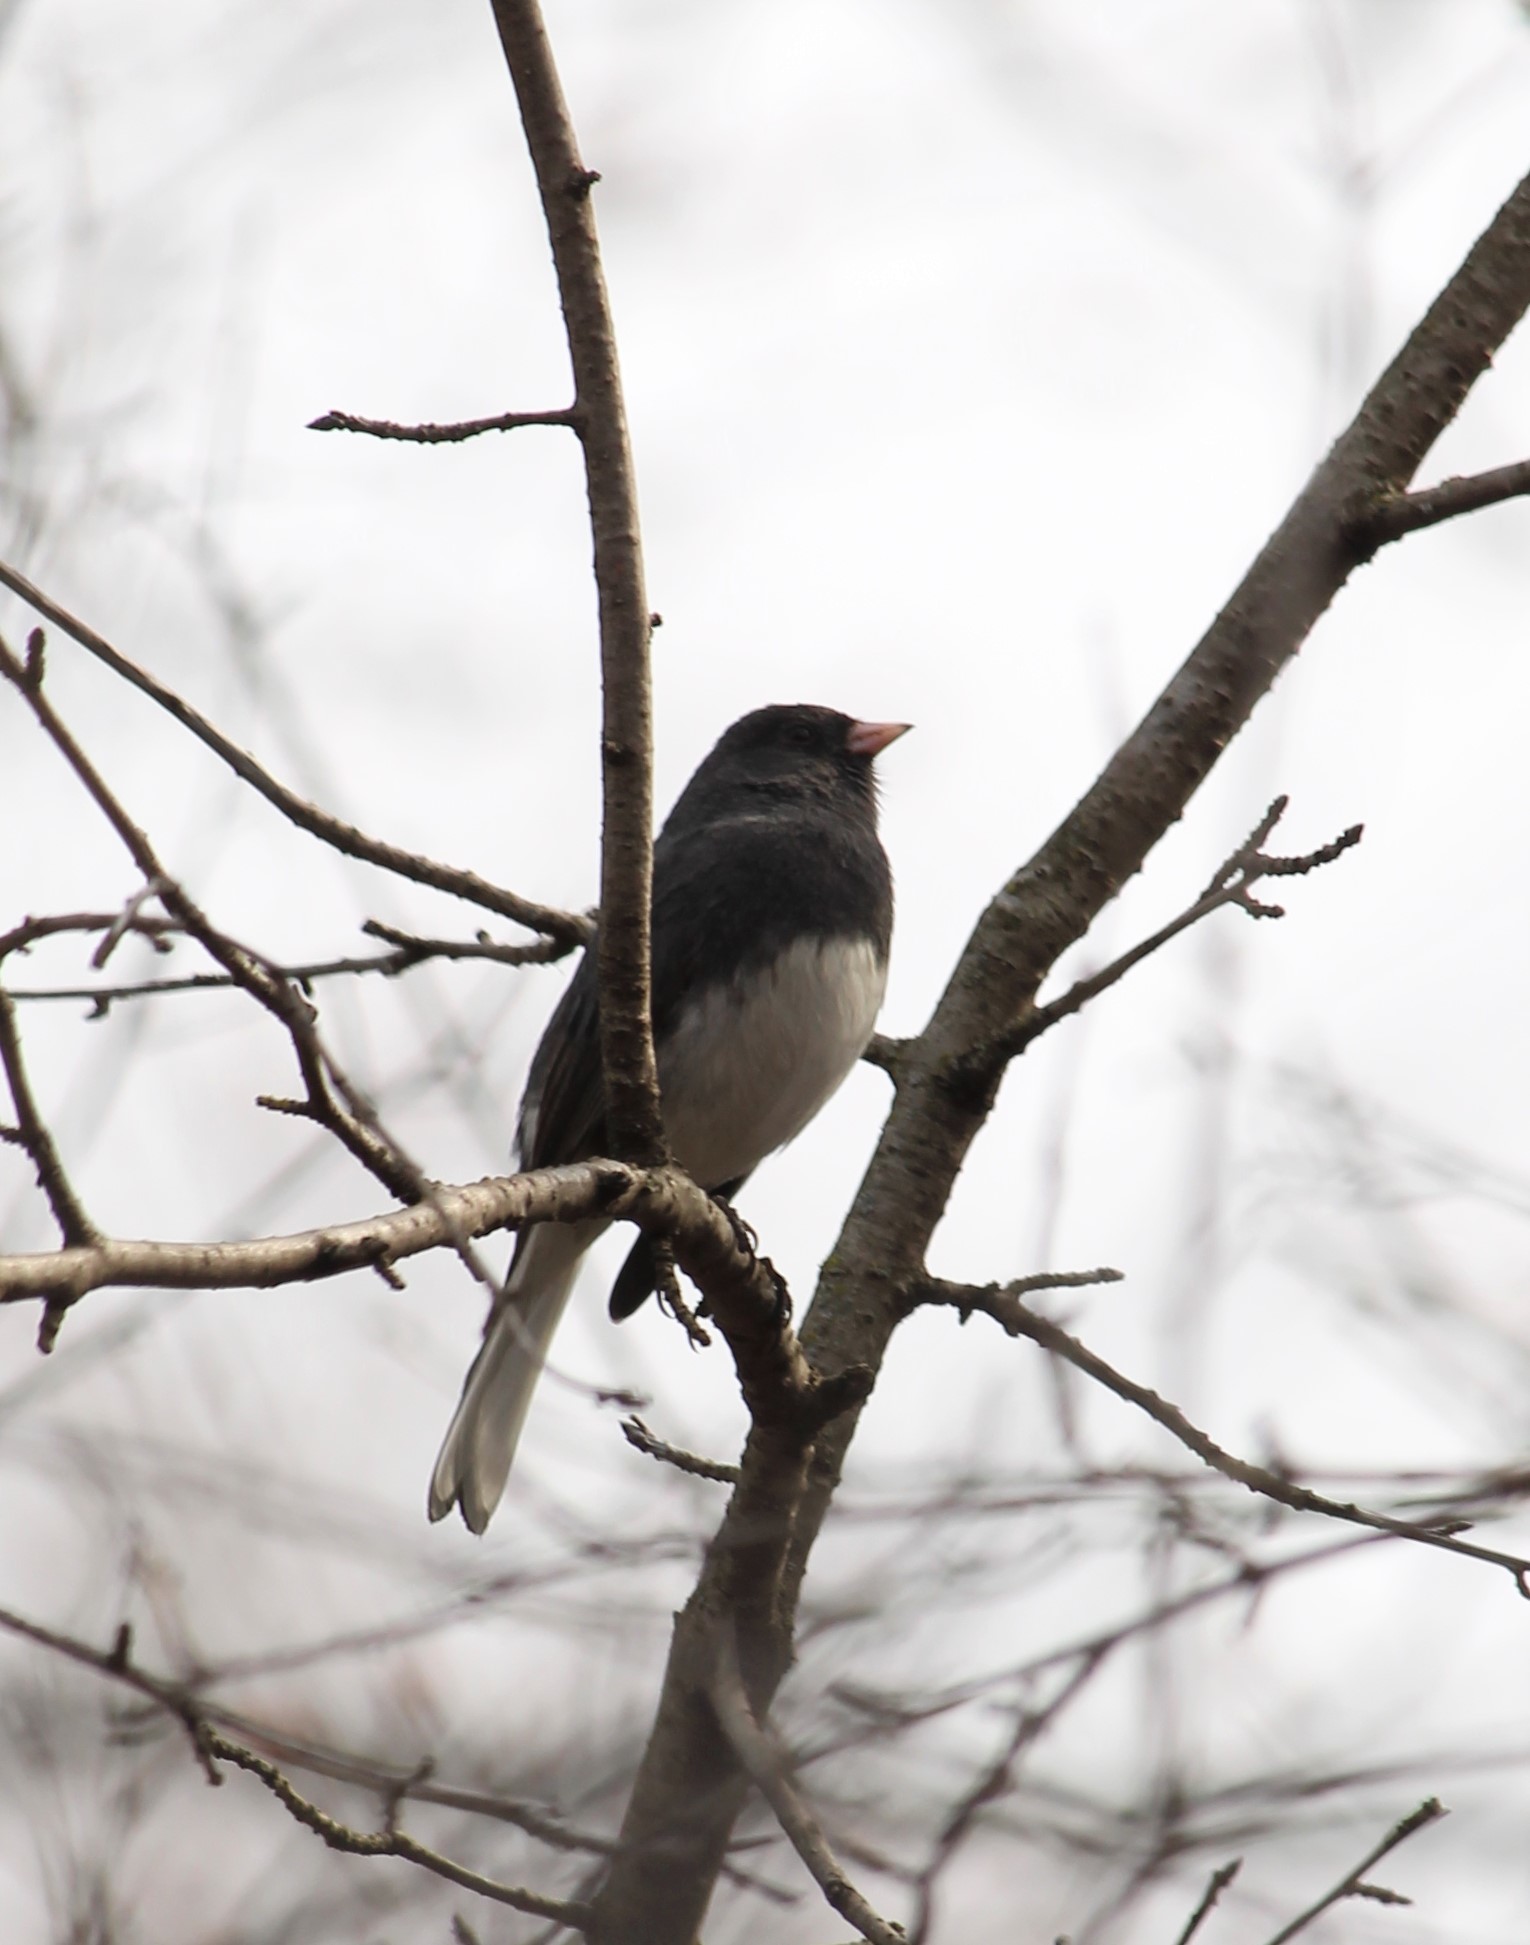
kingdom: Animalia
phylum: Chordata
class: Aves
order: Passeriformes
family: Passerellidae
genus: Junco
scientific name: Junco hyemalis
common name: Dark-eyed junco
